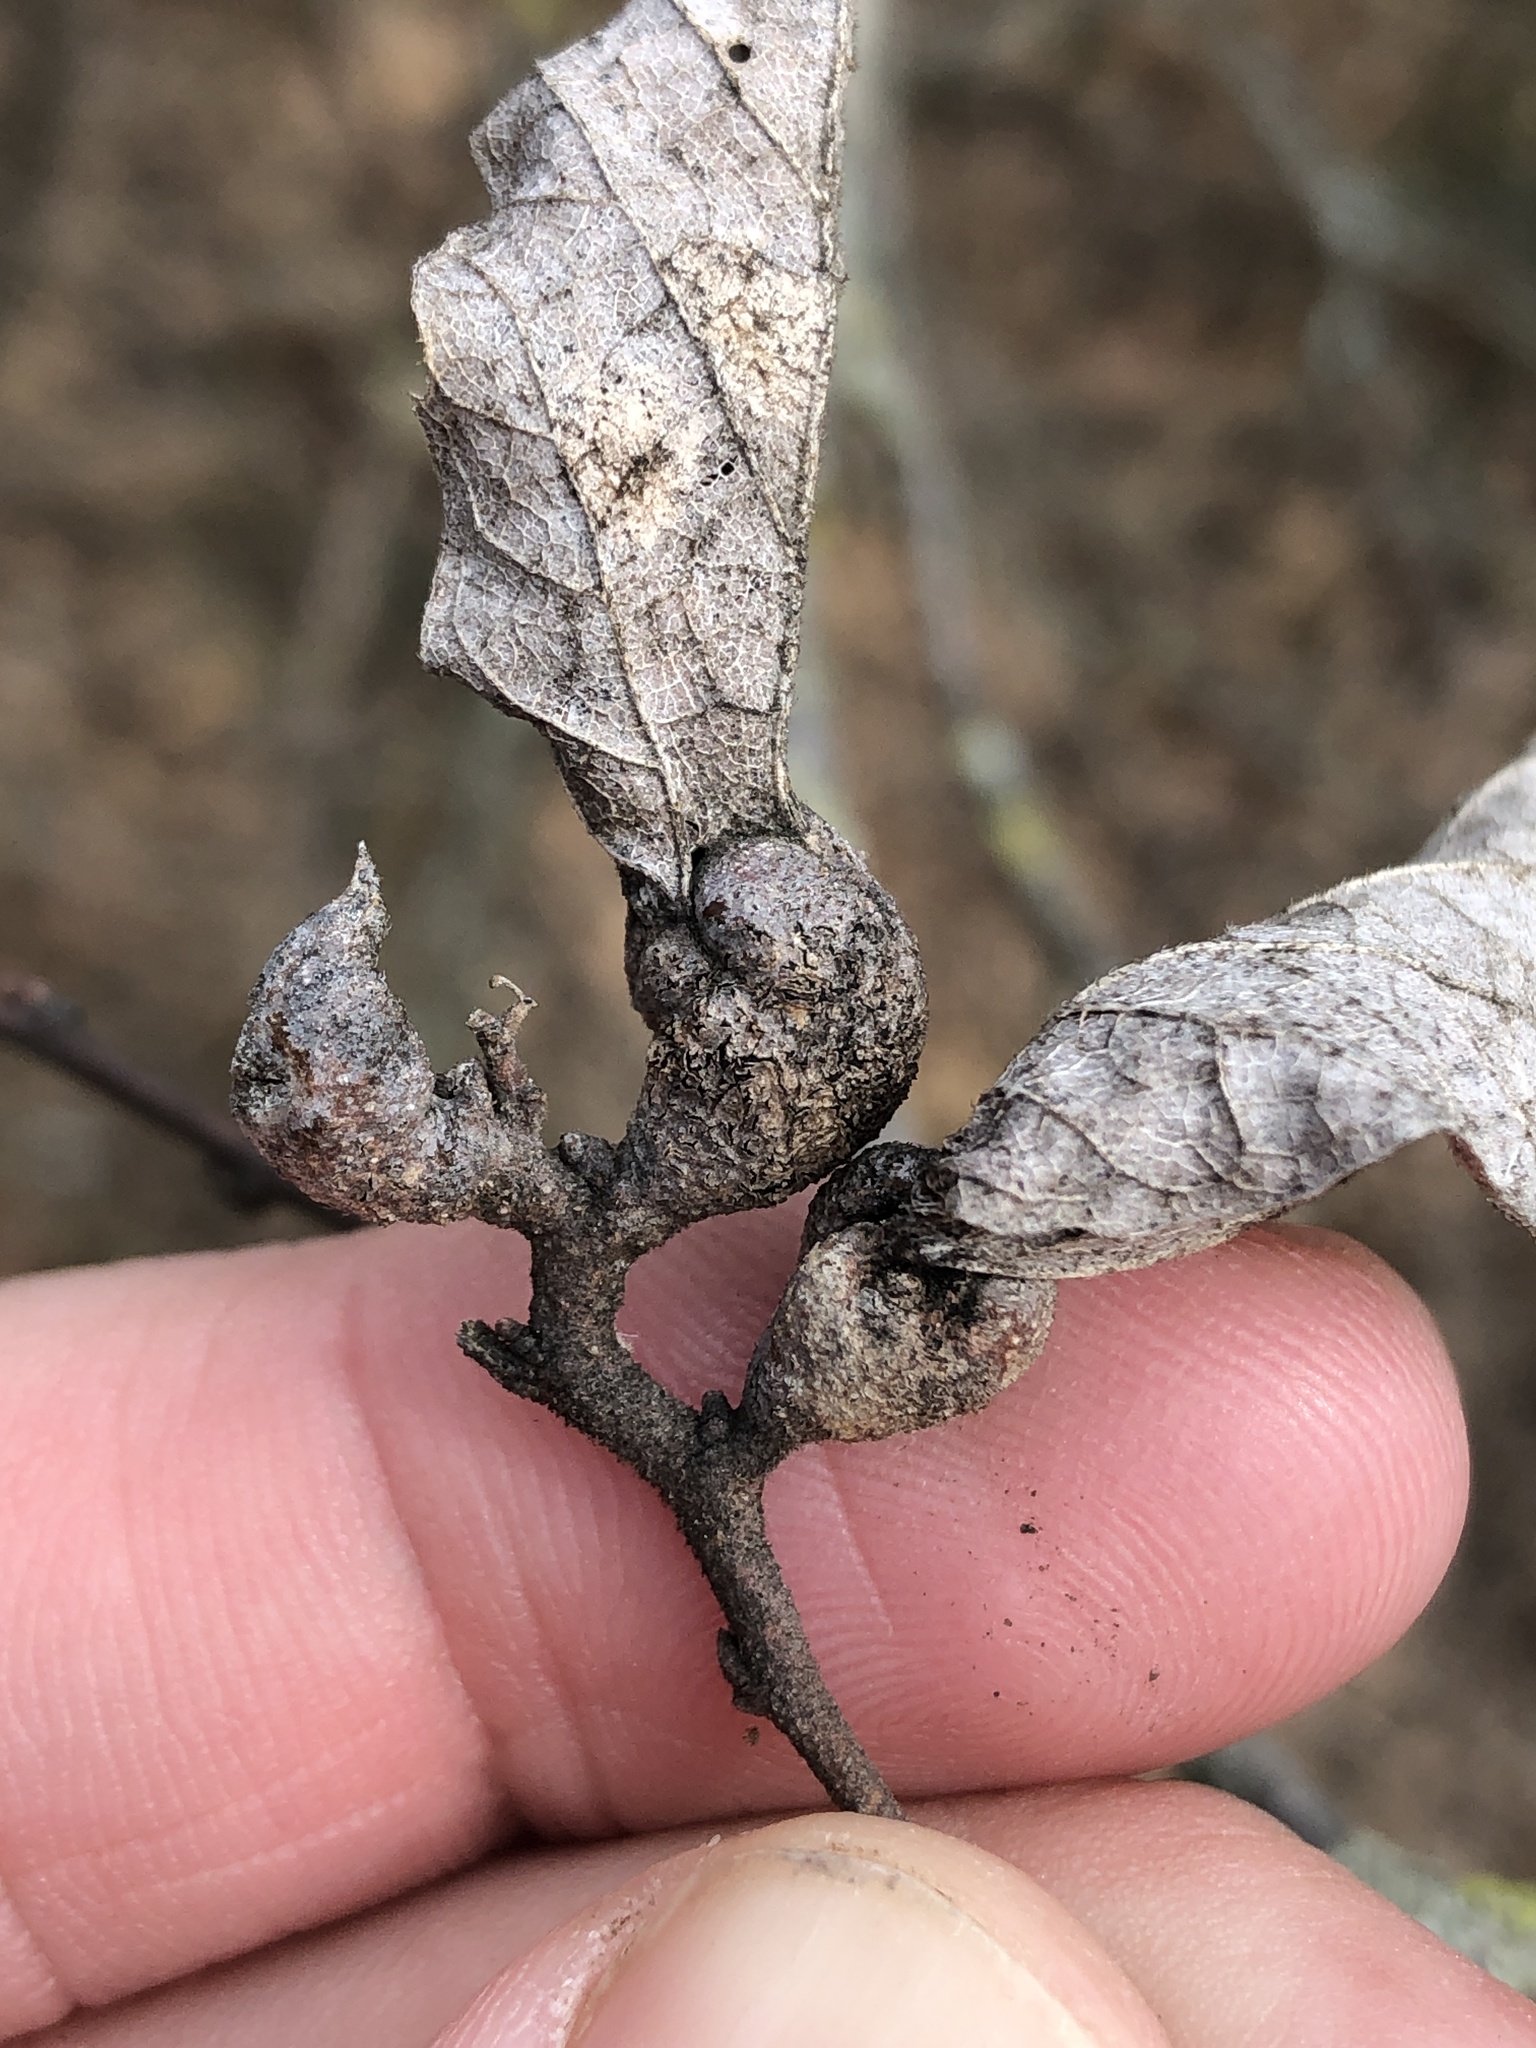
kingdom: Animalia
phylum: Arthropoda
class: Insecta
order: Hemiptera
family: Aphalaridae
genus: Pachypsylla
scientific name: Pachypsylla venusta
